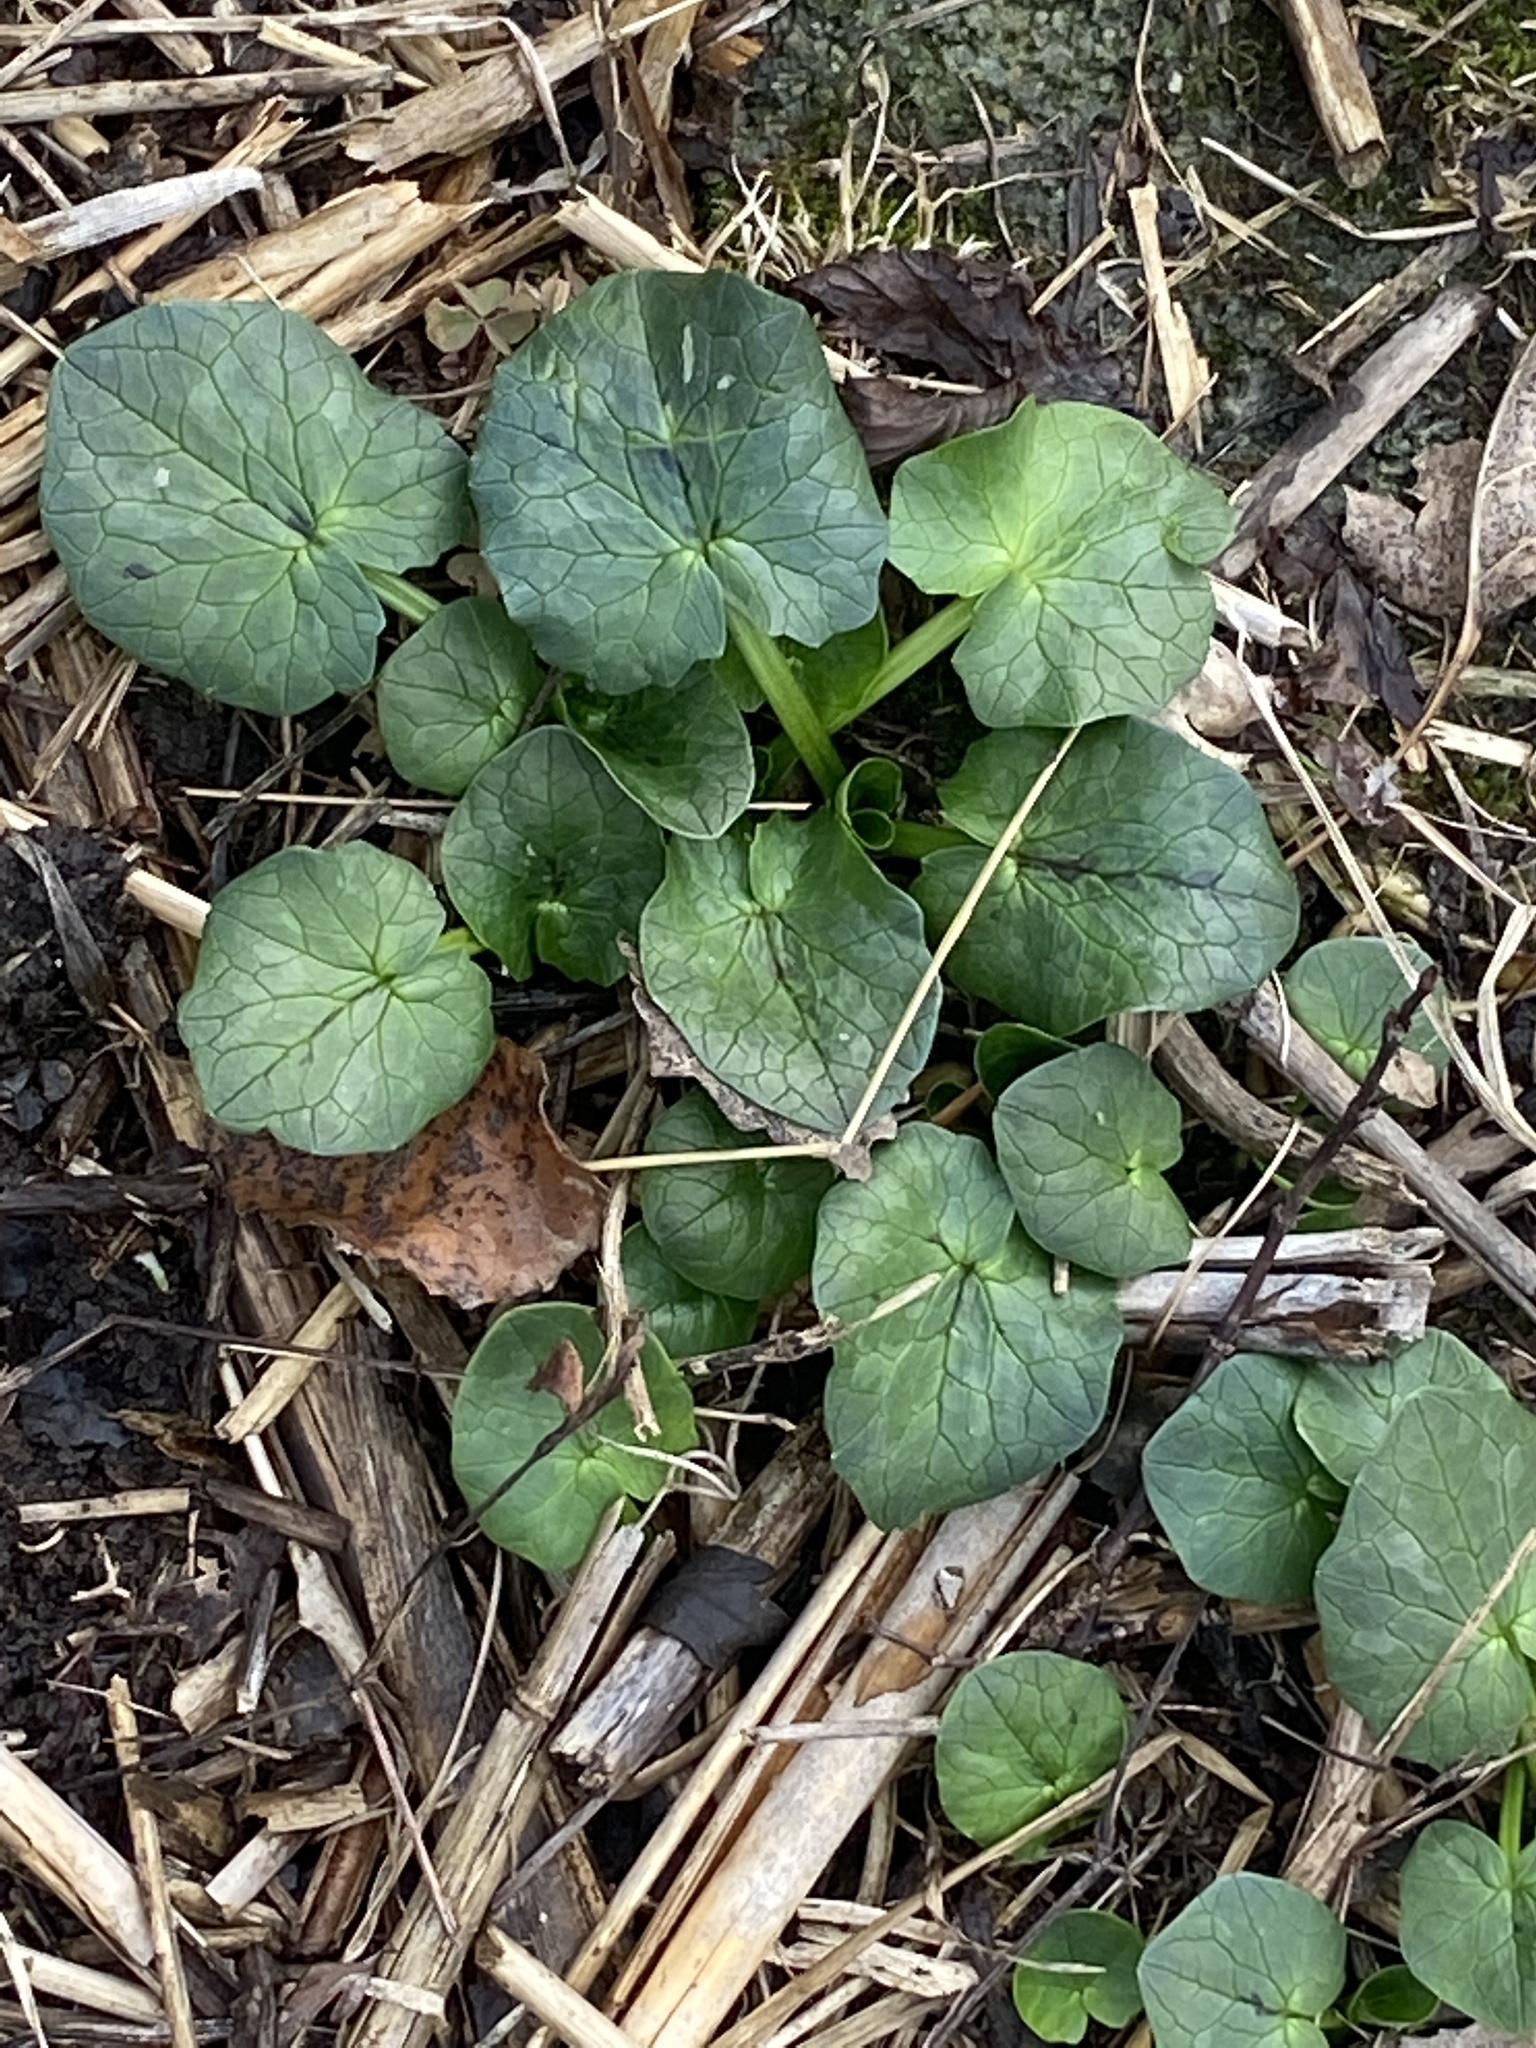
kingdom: Plantae
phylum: Tracheophyta
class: Magnoliopsida
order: Ranunculales
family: Ranunculaceae
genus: Ficaria
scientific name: Ficaria verna
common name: Lesser celandine
